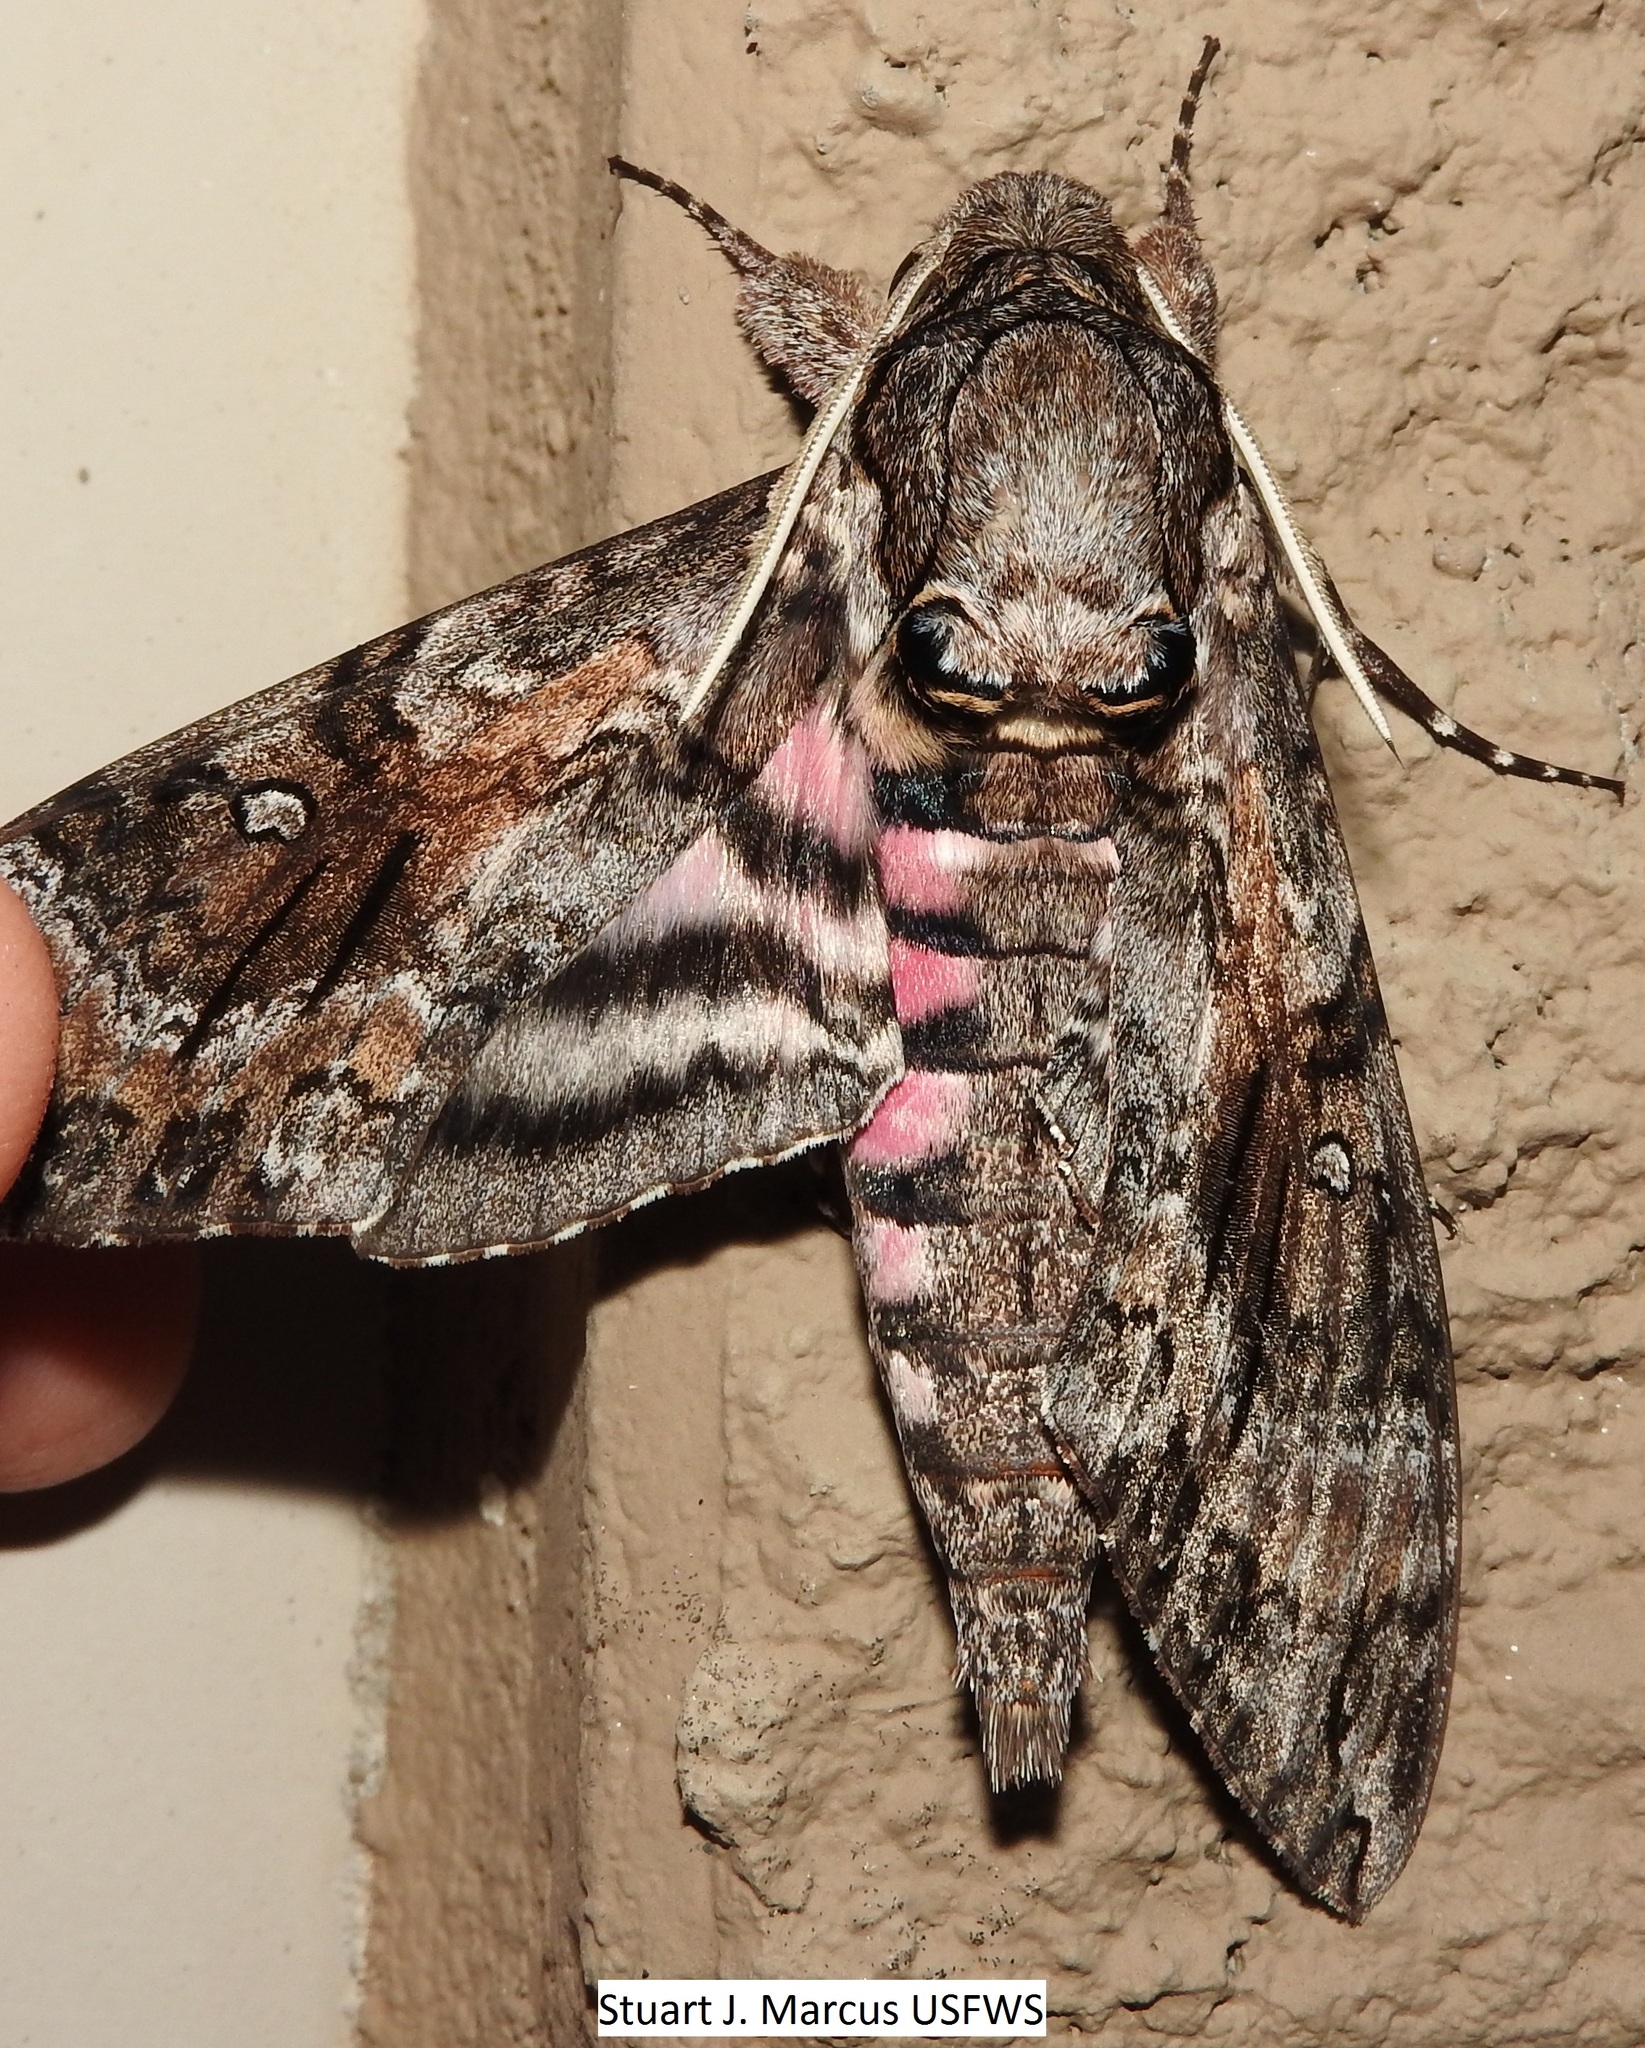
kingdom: Animalia
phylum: Arthropoda
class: Insecta
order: Lepidoptera
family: Sphingidae
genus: Agrius
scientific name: Agrius cingulata
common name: Pink-spotted hawkmoth
